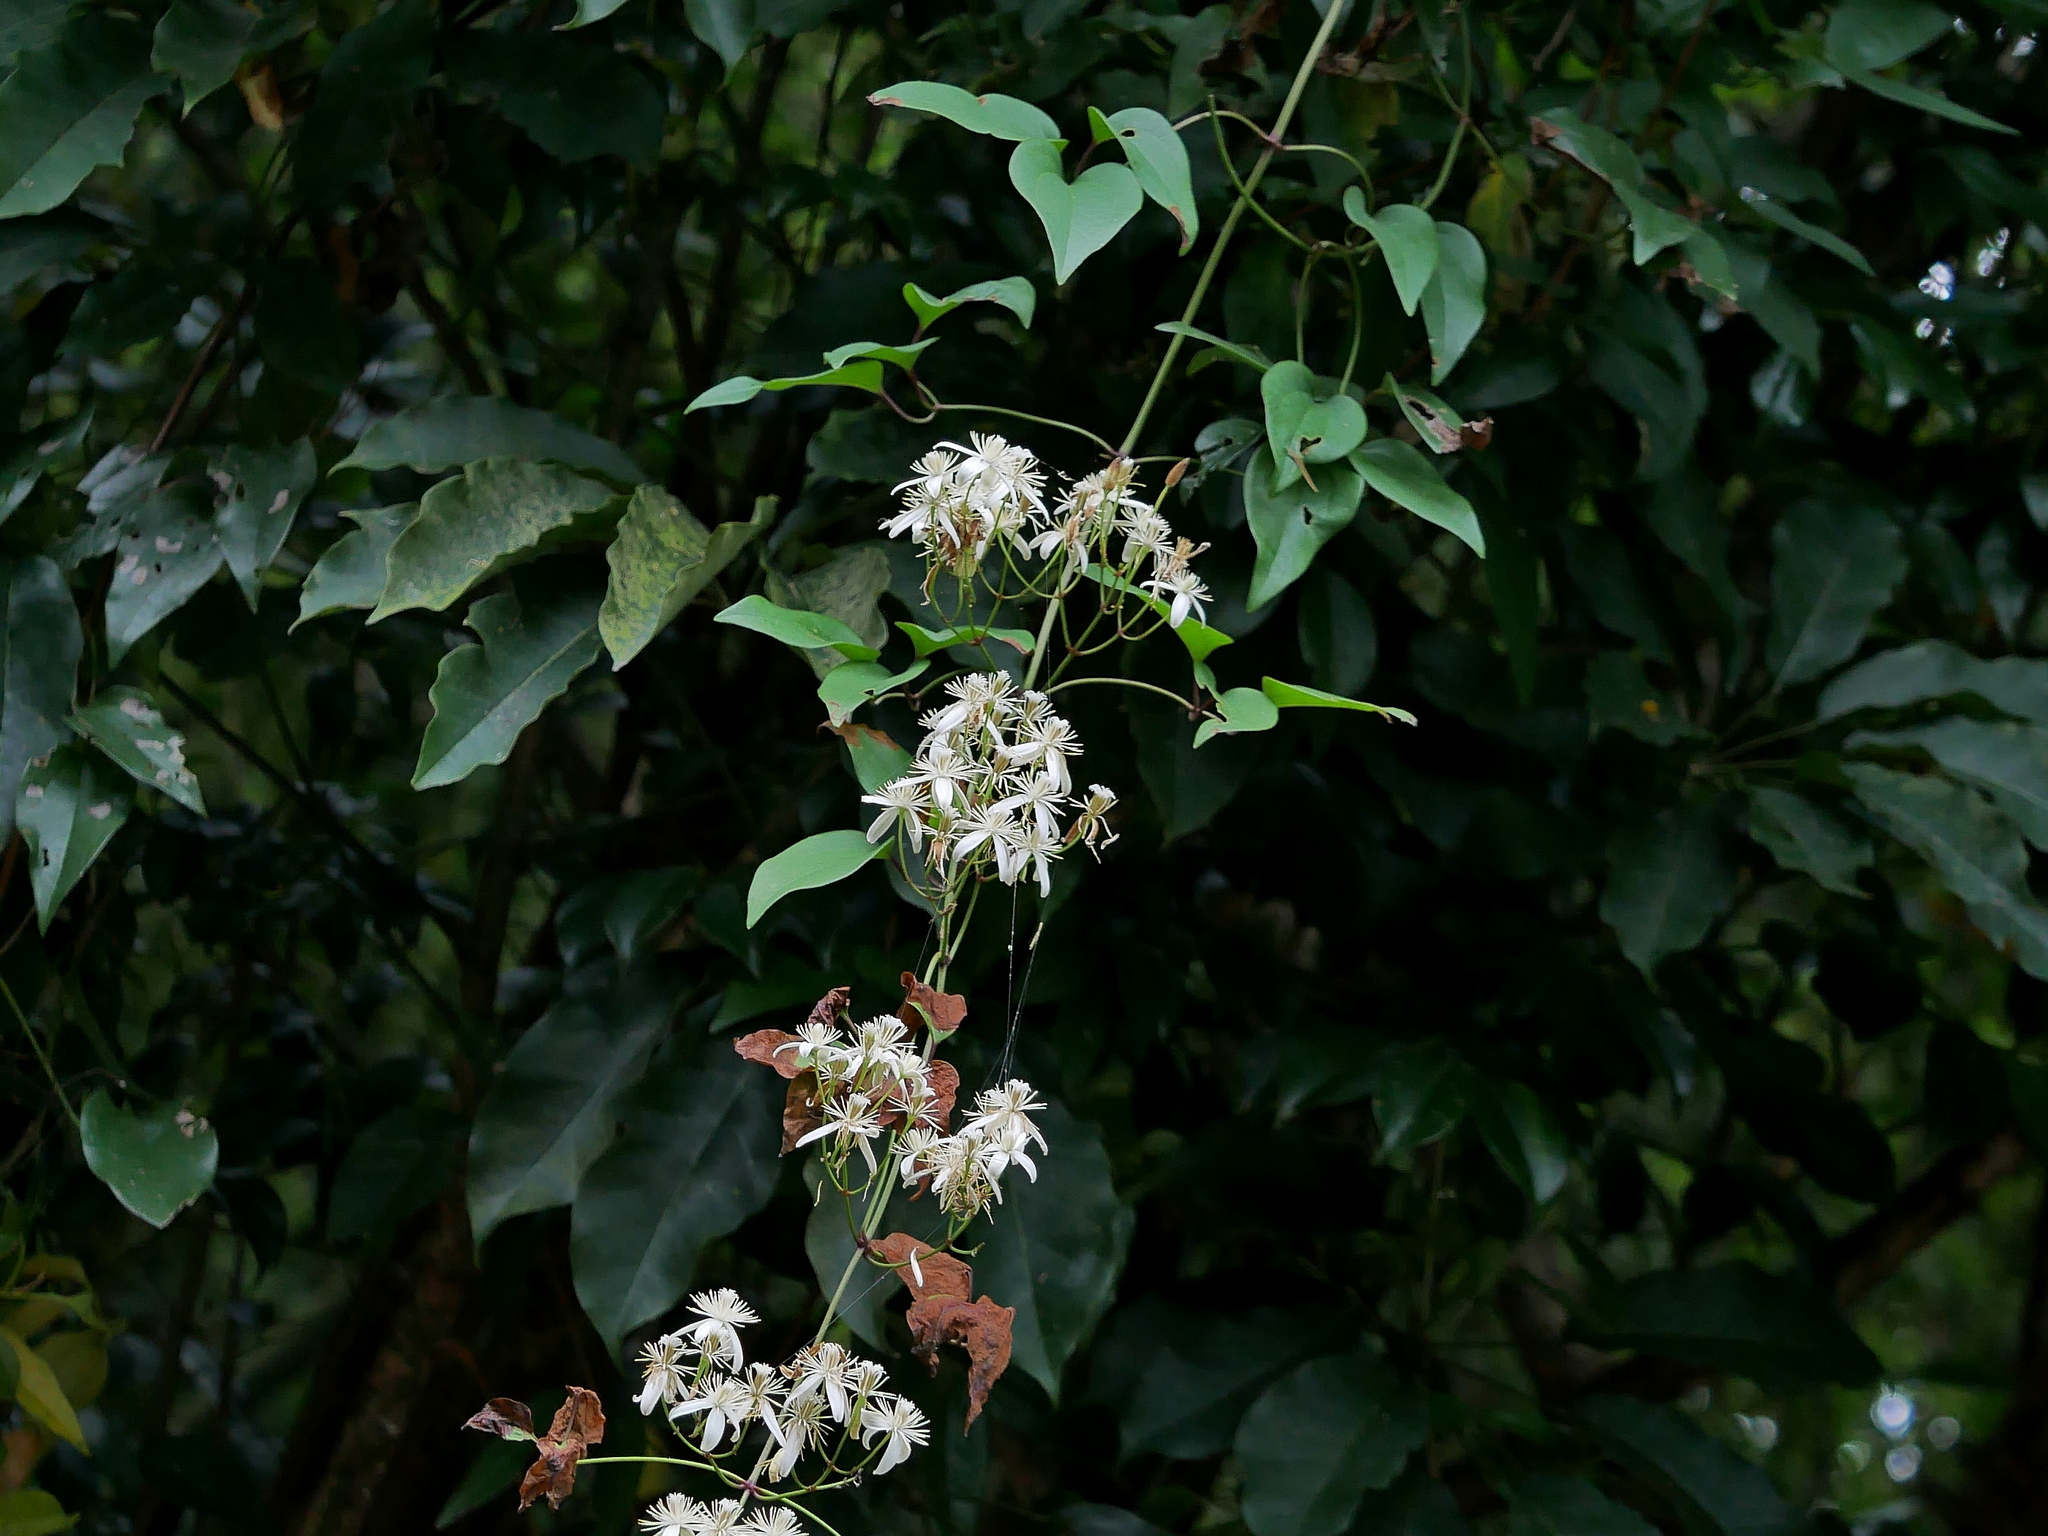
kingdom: Plantae
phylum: Tracheophyta
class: Magnoliopsida
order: Ranunculales
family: Ranunculaceae
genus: Clematis
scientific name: Clematis meyeniana
